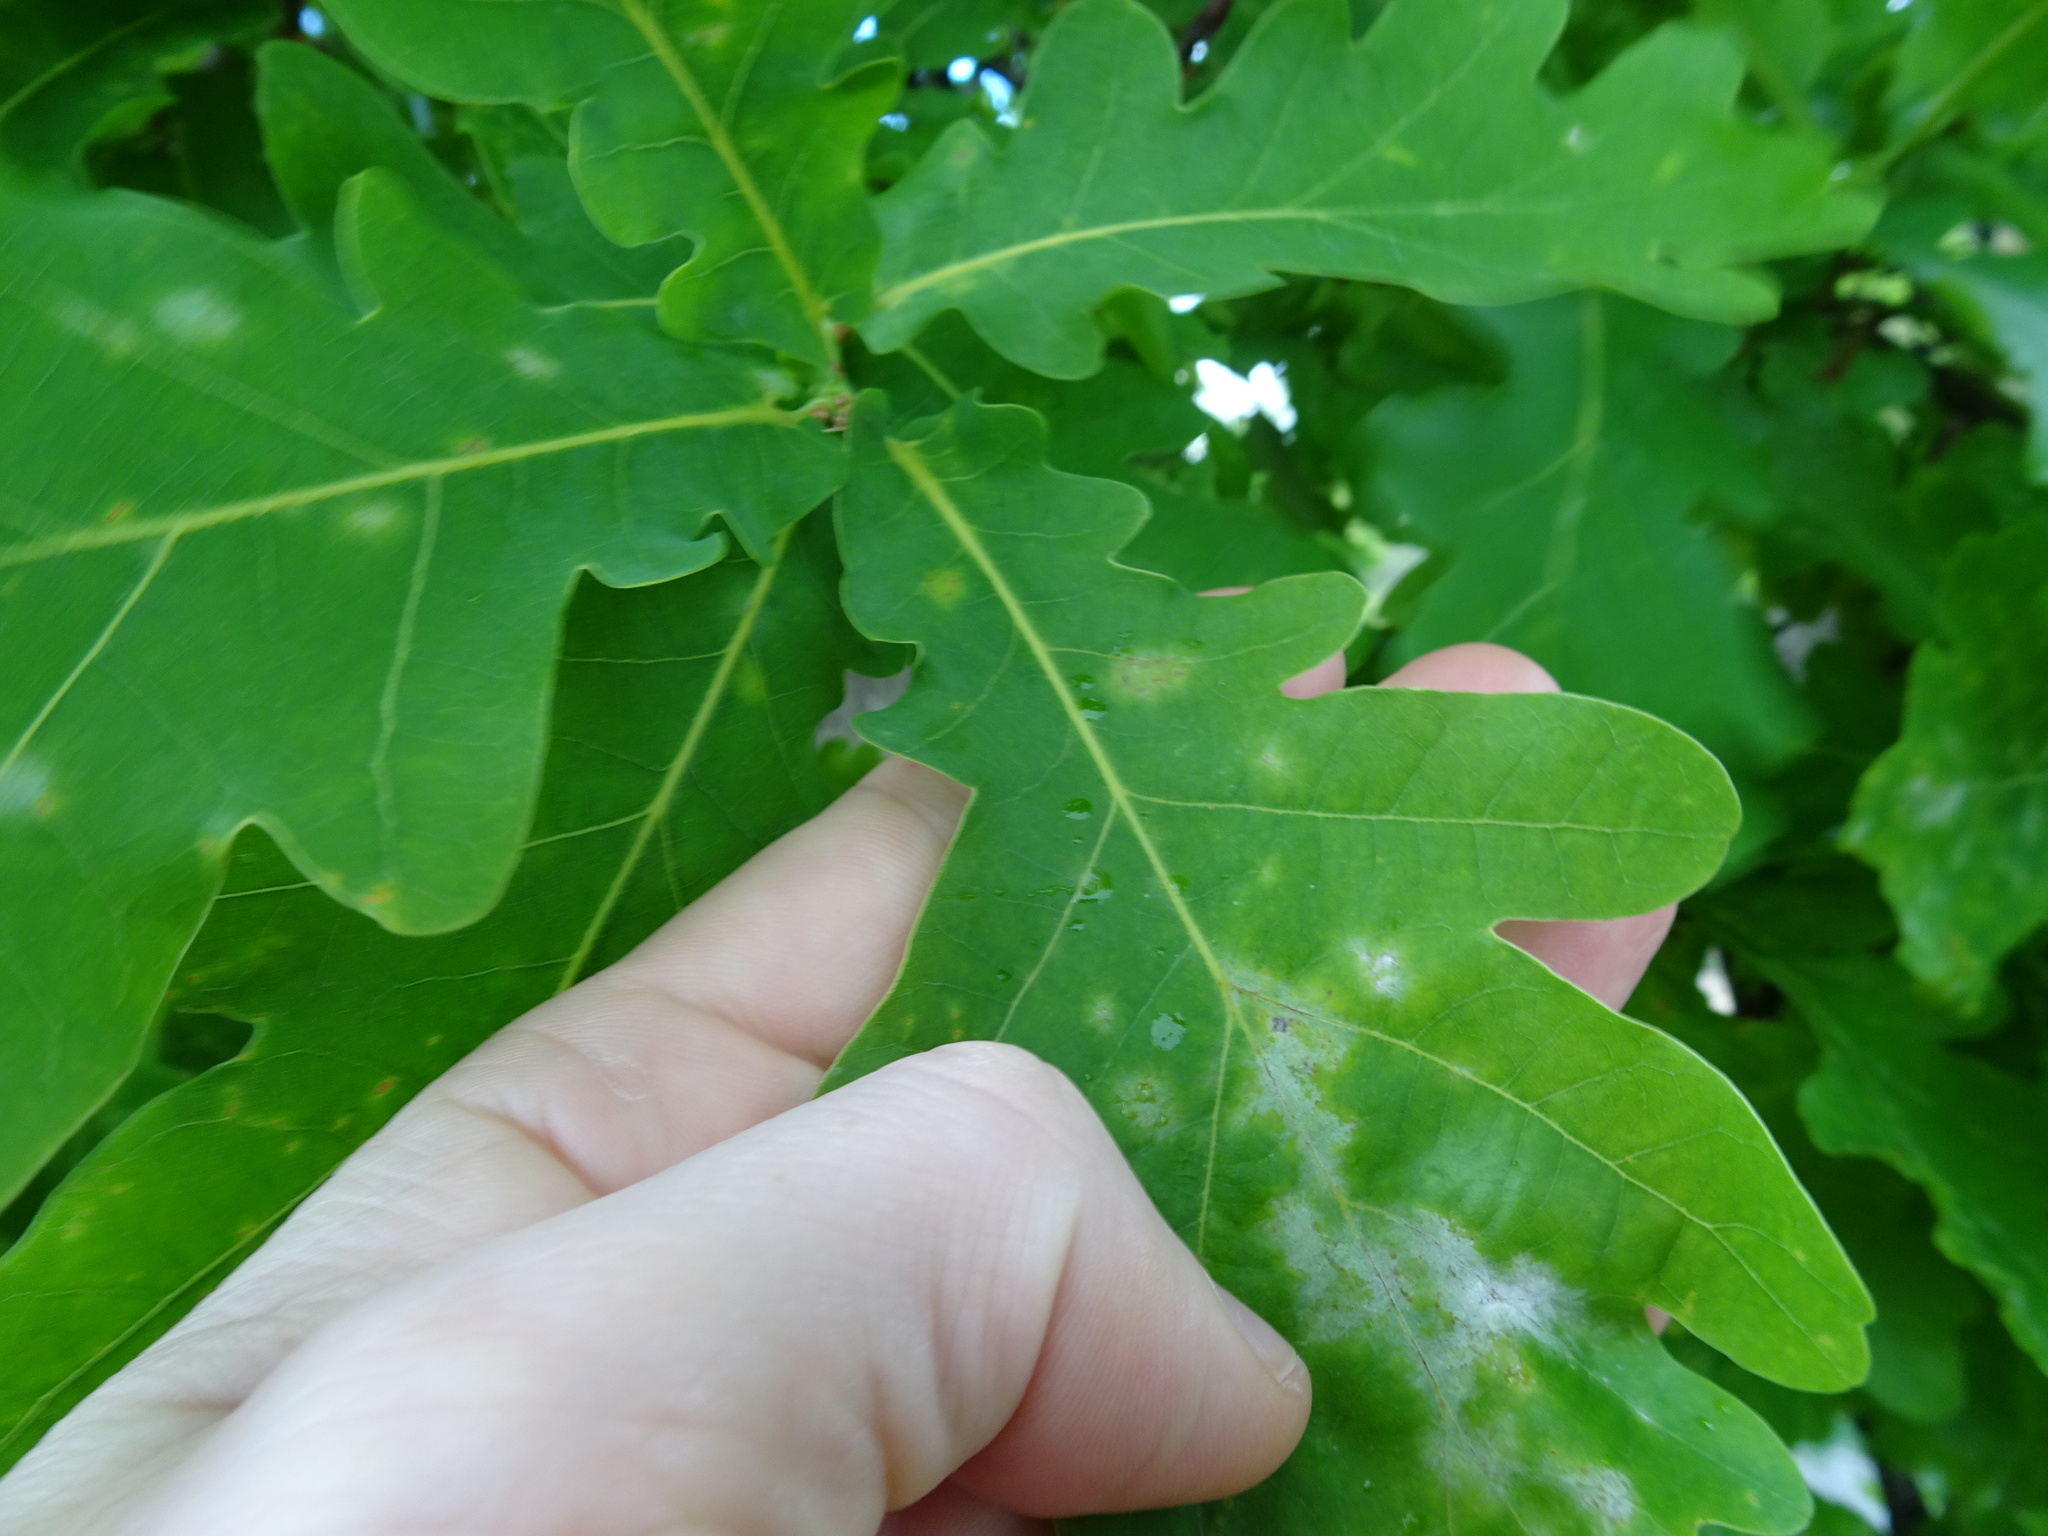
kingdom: Fungi
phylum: Ascomycota
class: Leotiomycetes
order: Helotiales
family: Erysiphaceae
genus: Erysiphe
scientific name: Erysiphe alphitoides
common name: Oak mildew
